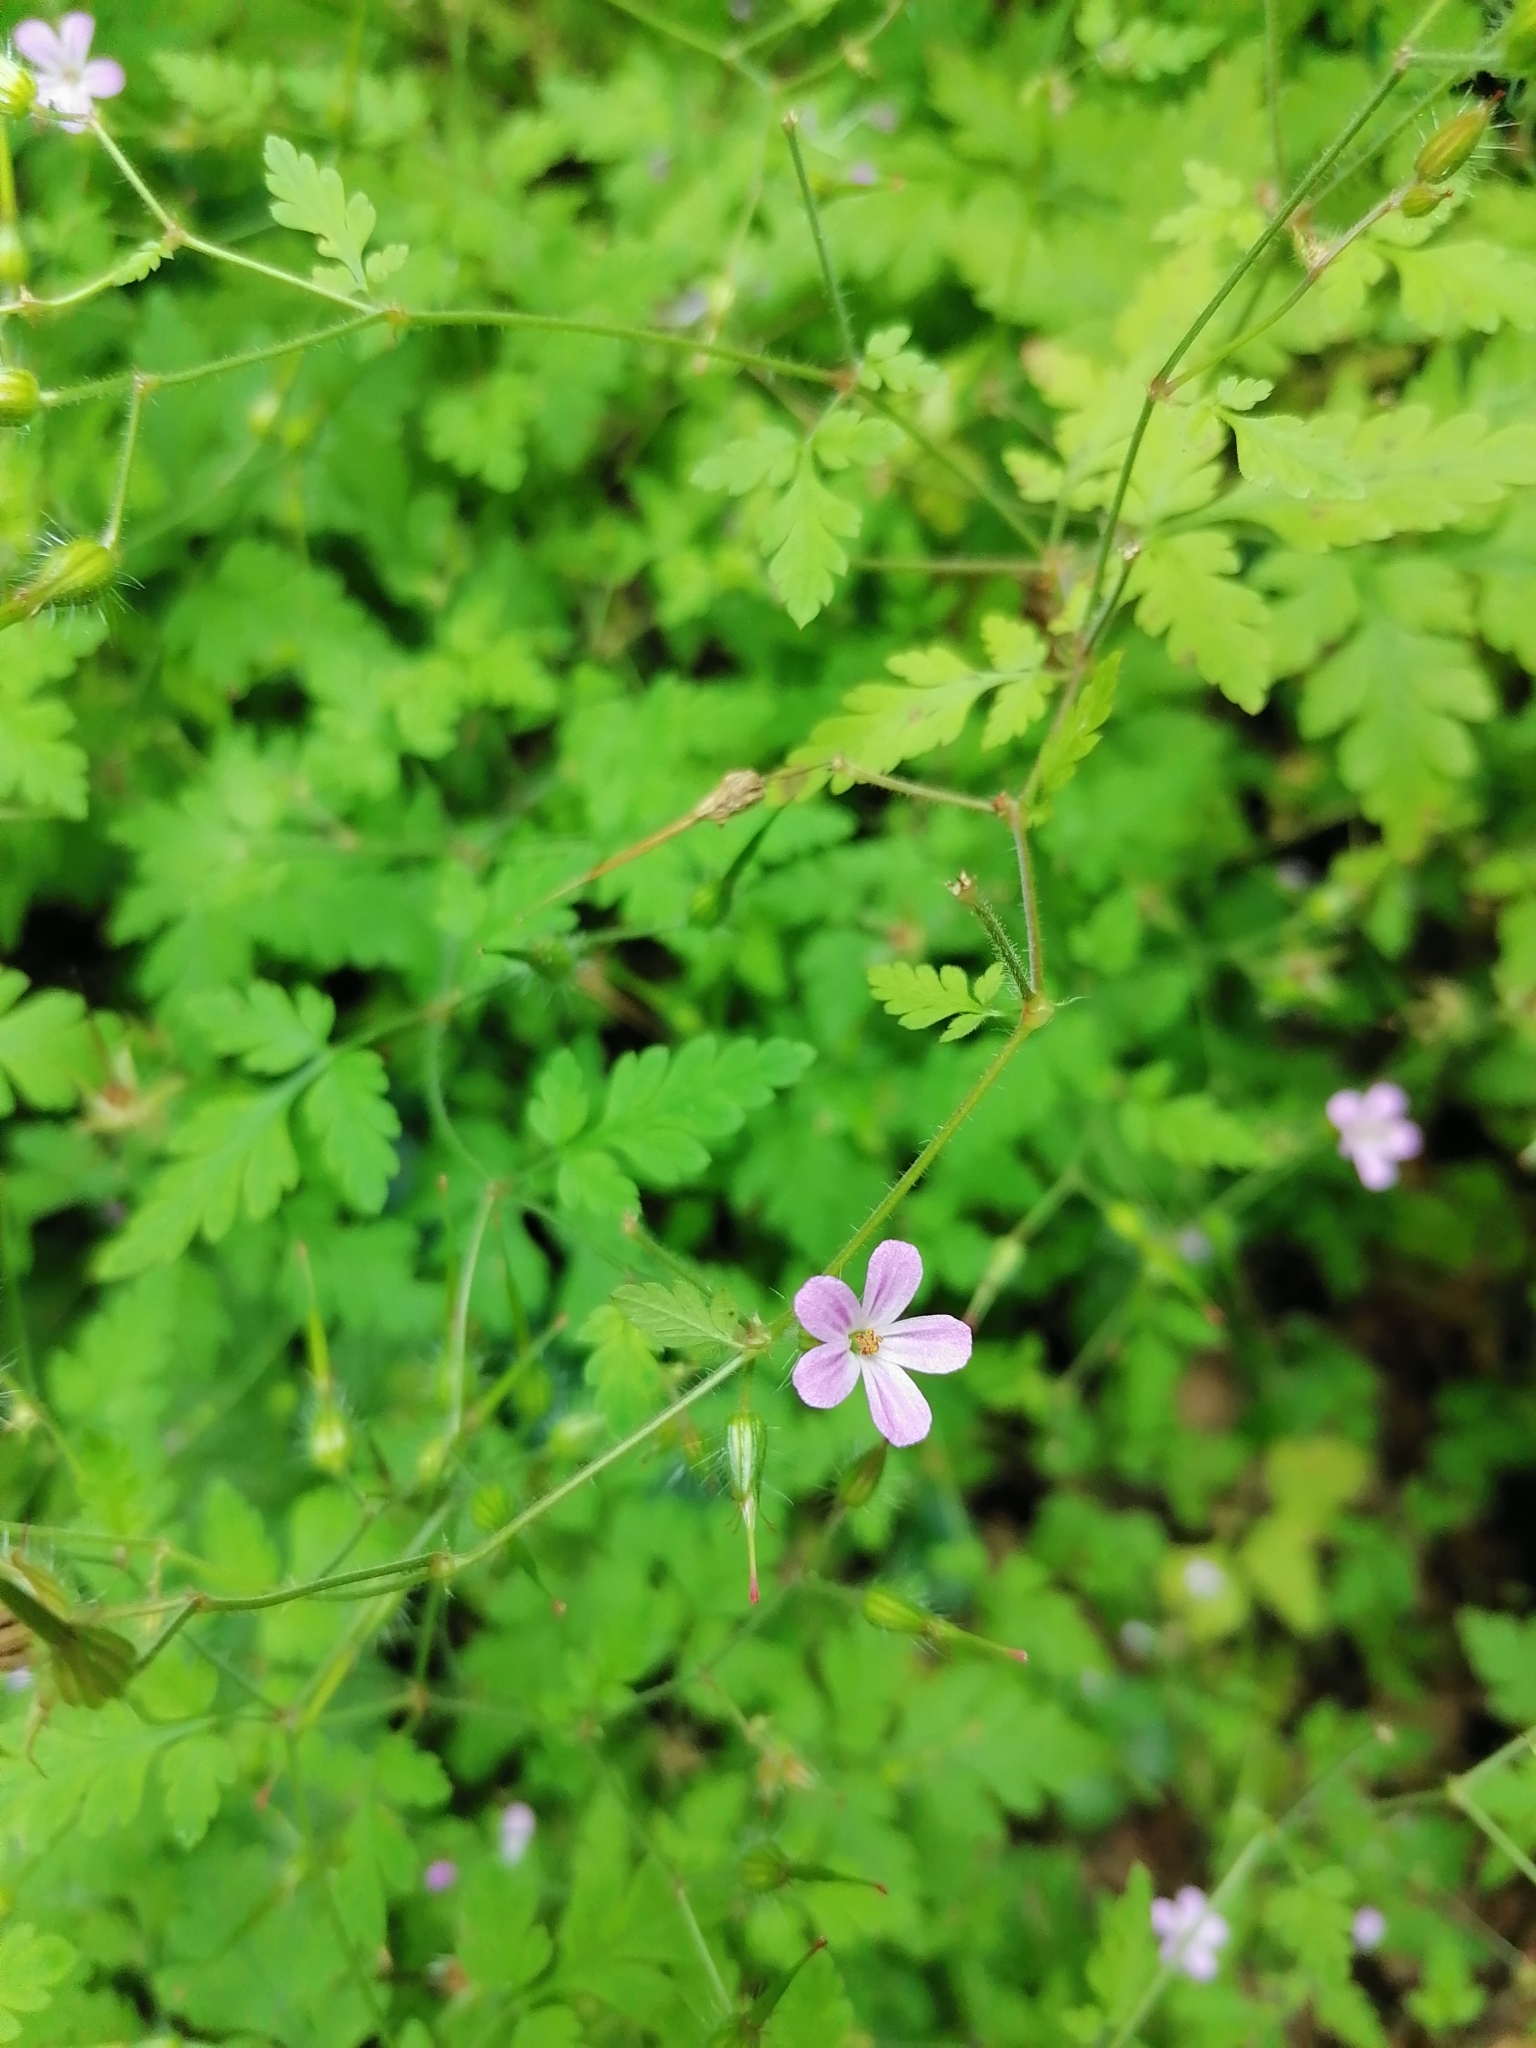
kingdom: Plantae
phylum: Tracheophyta
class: Magnoliopsida
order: Geraniales
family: Geraniaceae
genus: Geranium
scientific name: Geranium robertianum
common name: Herb-robert
